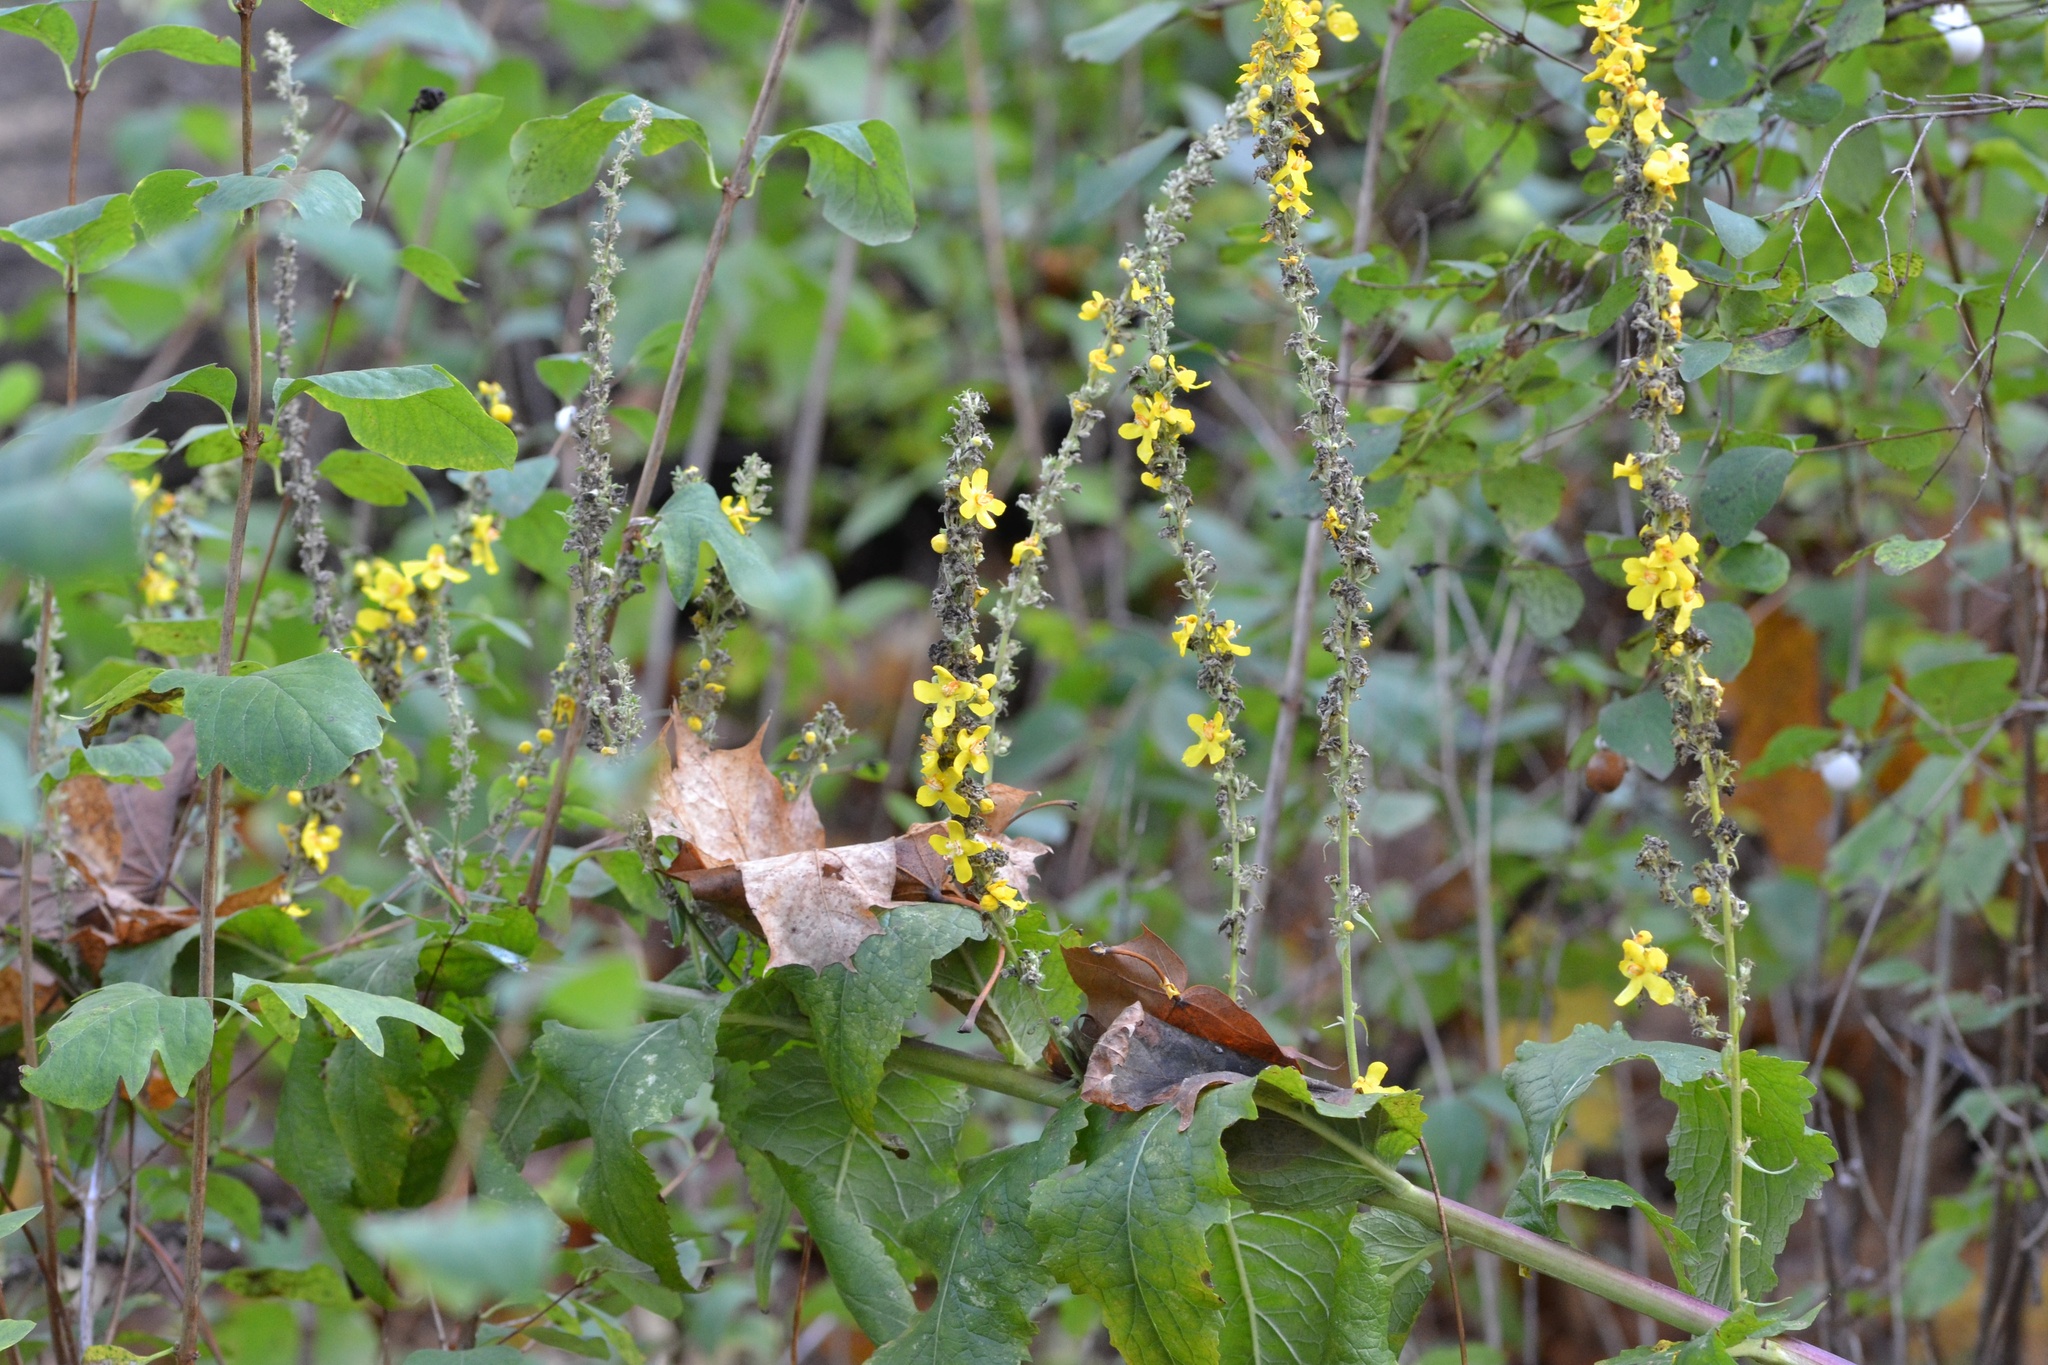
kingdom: Plantae
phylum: Tracheophyta
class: Magnoliopsida
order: Lamiales
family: Scrophulariaceae
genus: Verbascum
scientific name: Verbascum lychnitis
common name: White mullein
